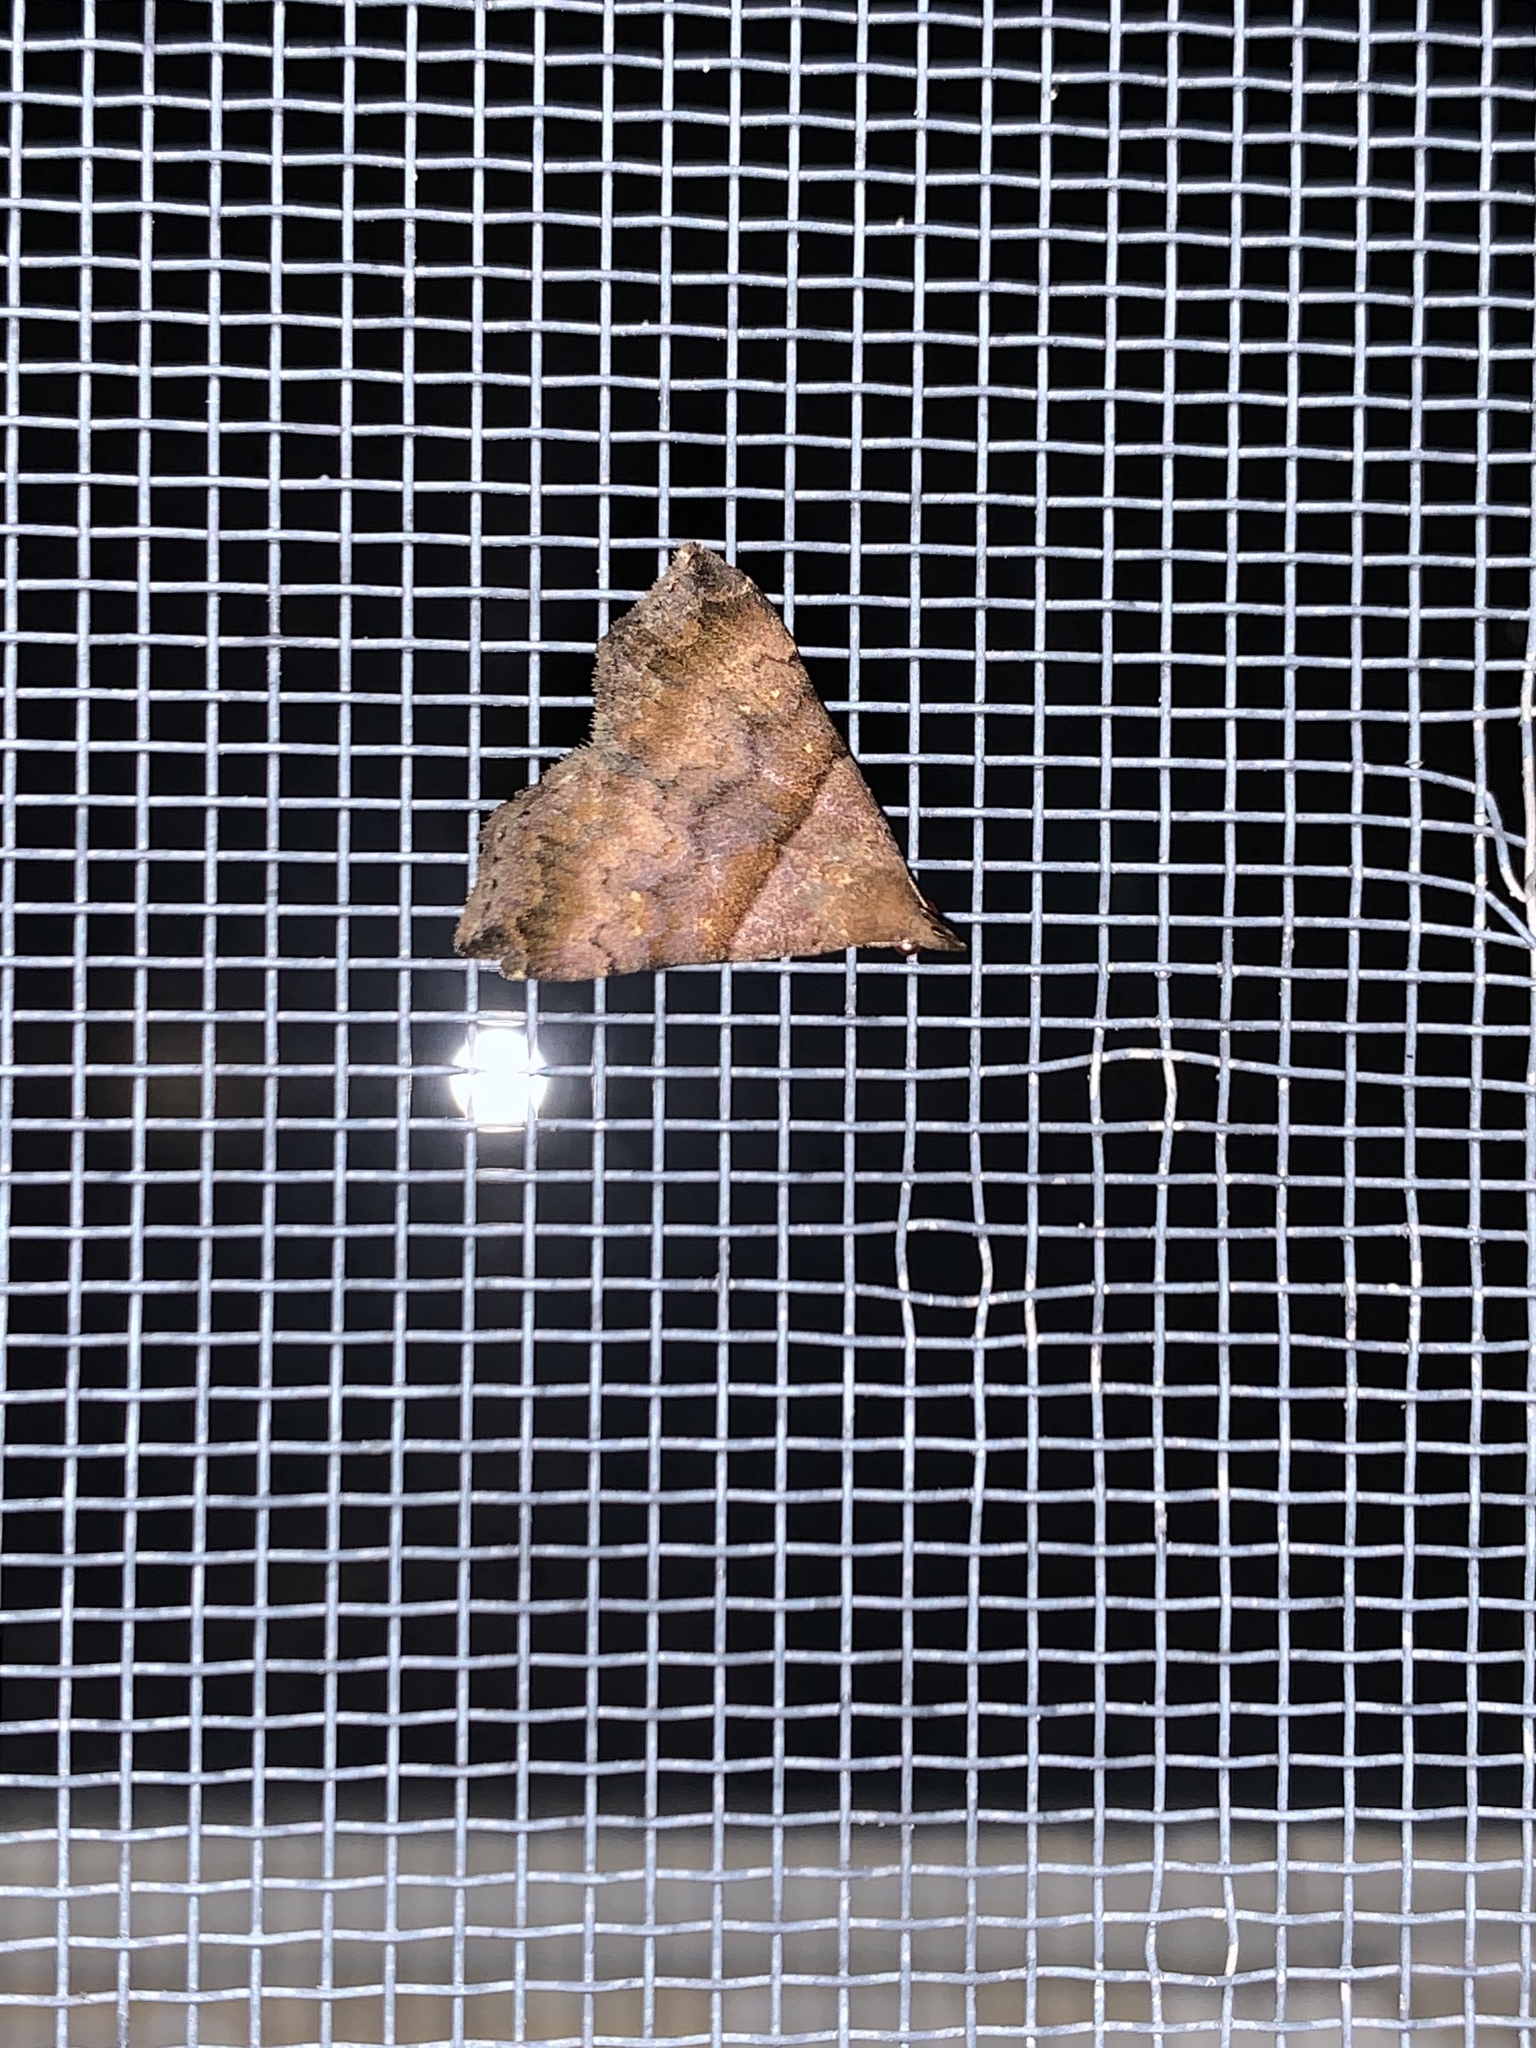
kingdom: Animalia
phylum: Arthropoda
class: Insecta
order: Lepidoptera
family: Erebidae
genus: Lascoria
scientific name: Lascoria ambigualis
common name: Ambiguous moth
